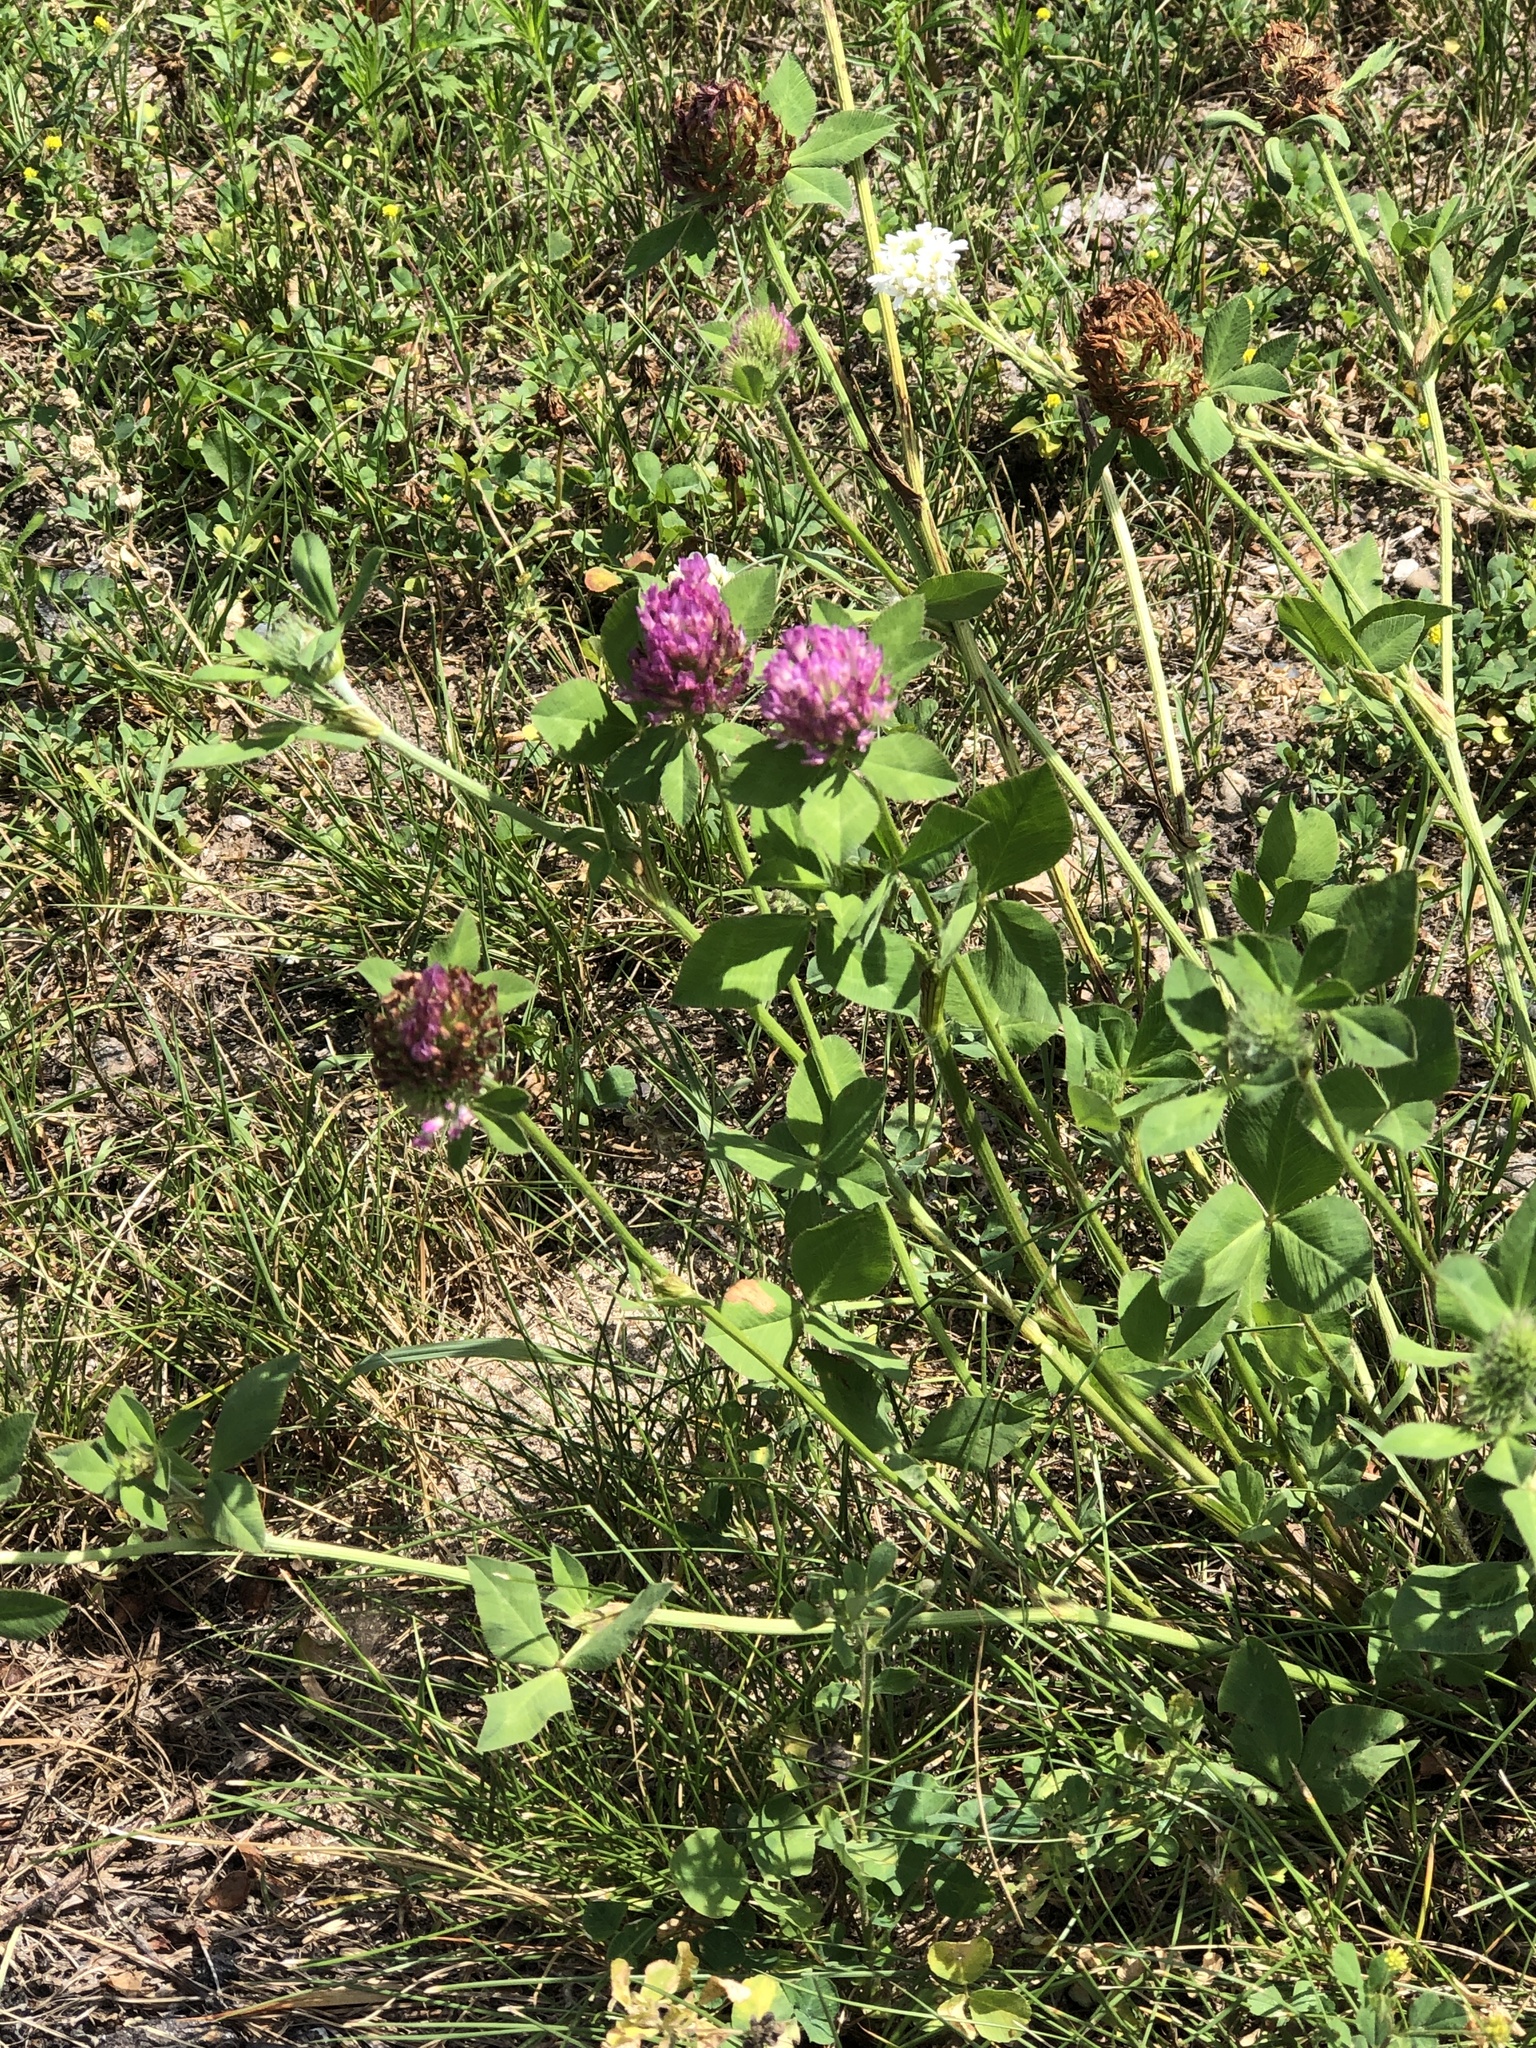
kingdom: Plantae
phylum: Tracheophyta
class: Magnoliopsida
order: Fabales
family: Fabaceae
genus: Trifolium
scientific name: Trifolium pratense
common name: Red clover
